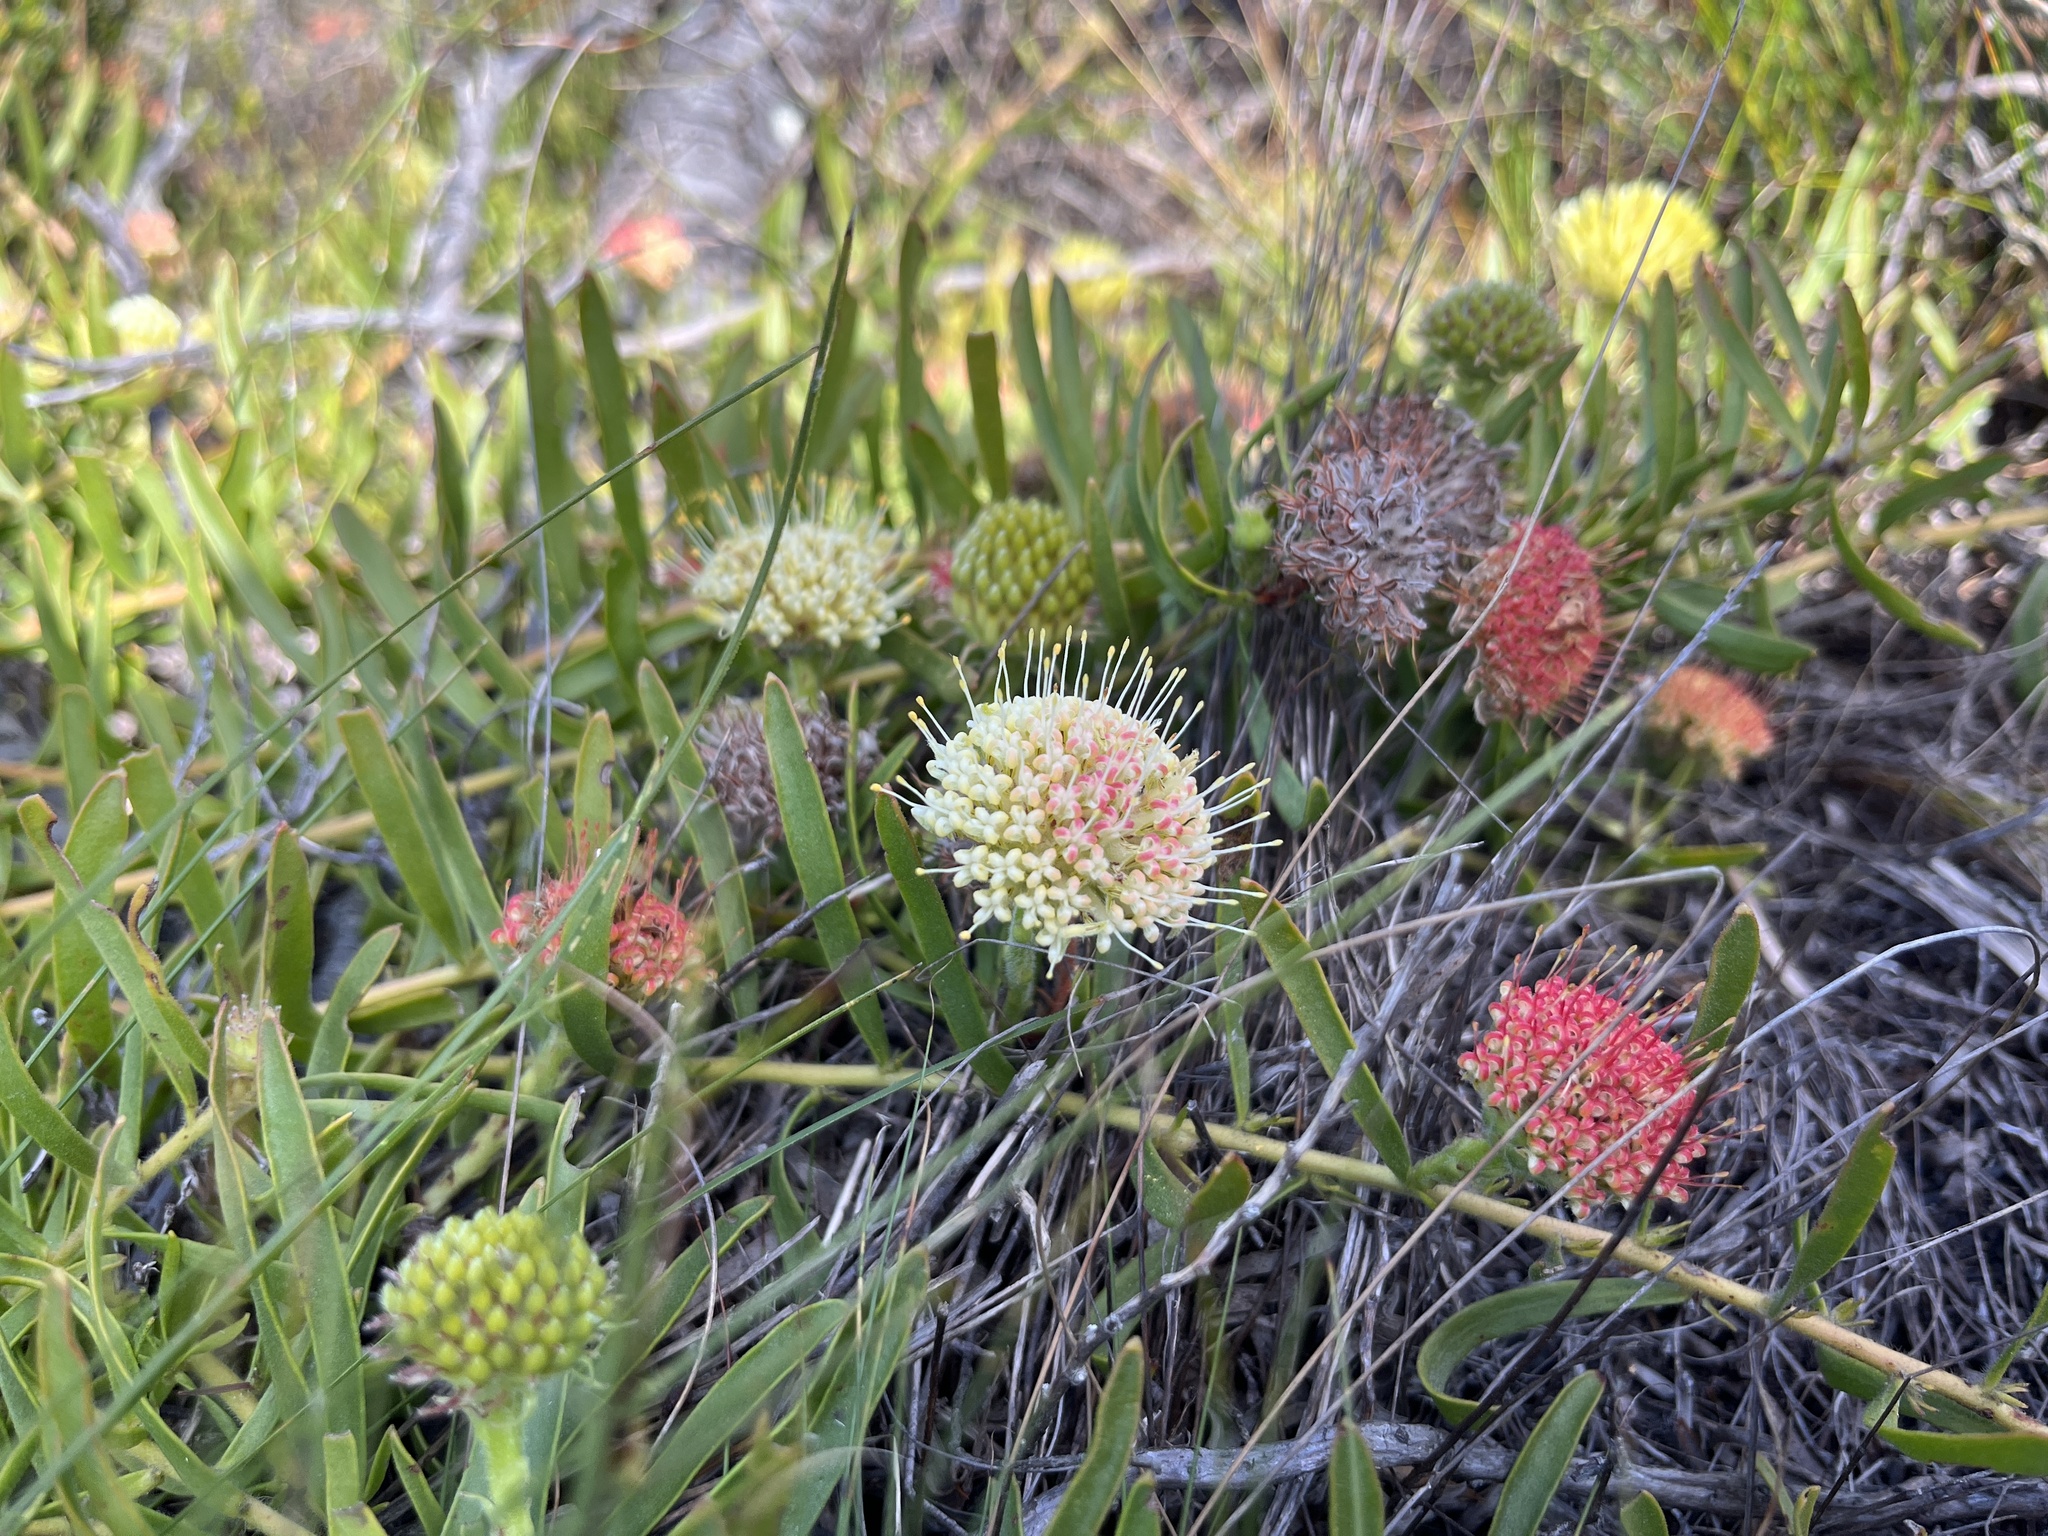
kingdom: Plantae
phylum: Tracheophyta
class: Magnoliopsida
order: Proteales
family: Proteaceae
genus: Leucospermum
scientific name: Leucospermum pedunculatum
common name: White-trailing pincushion
